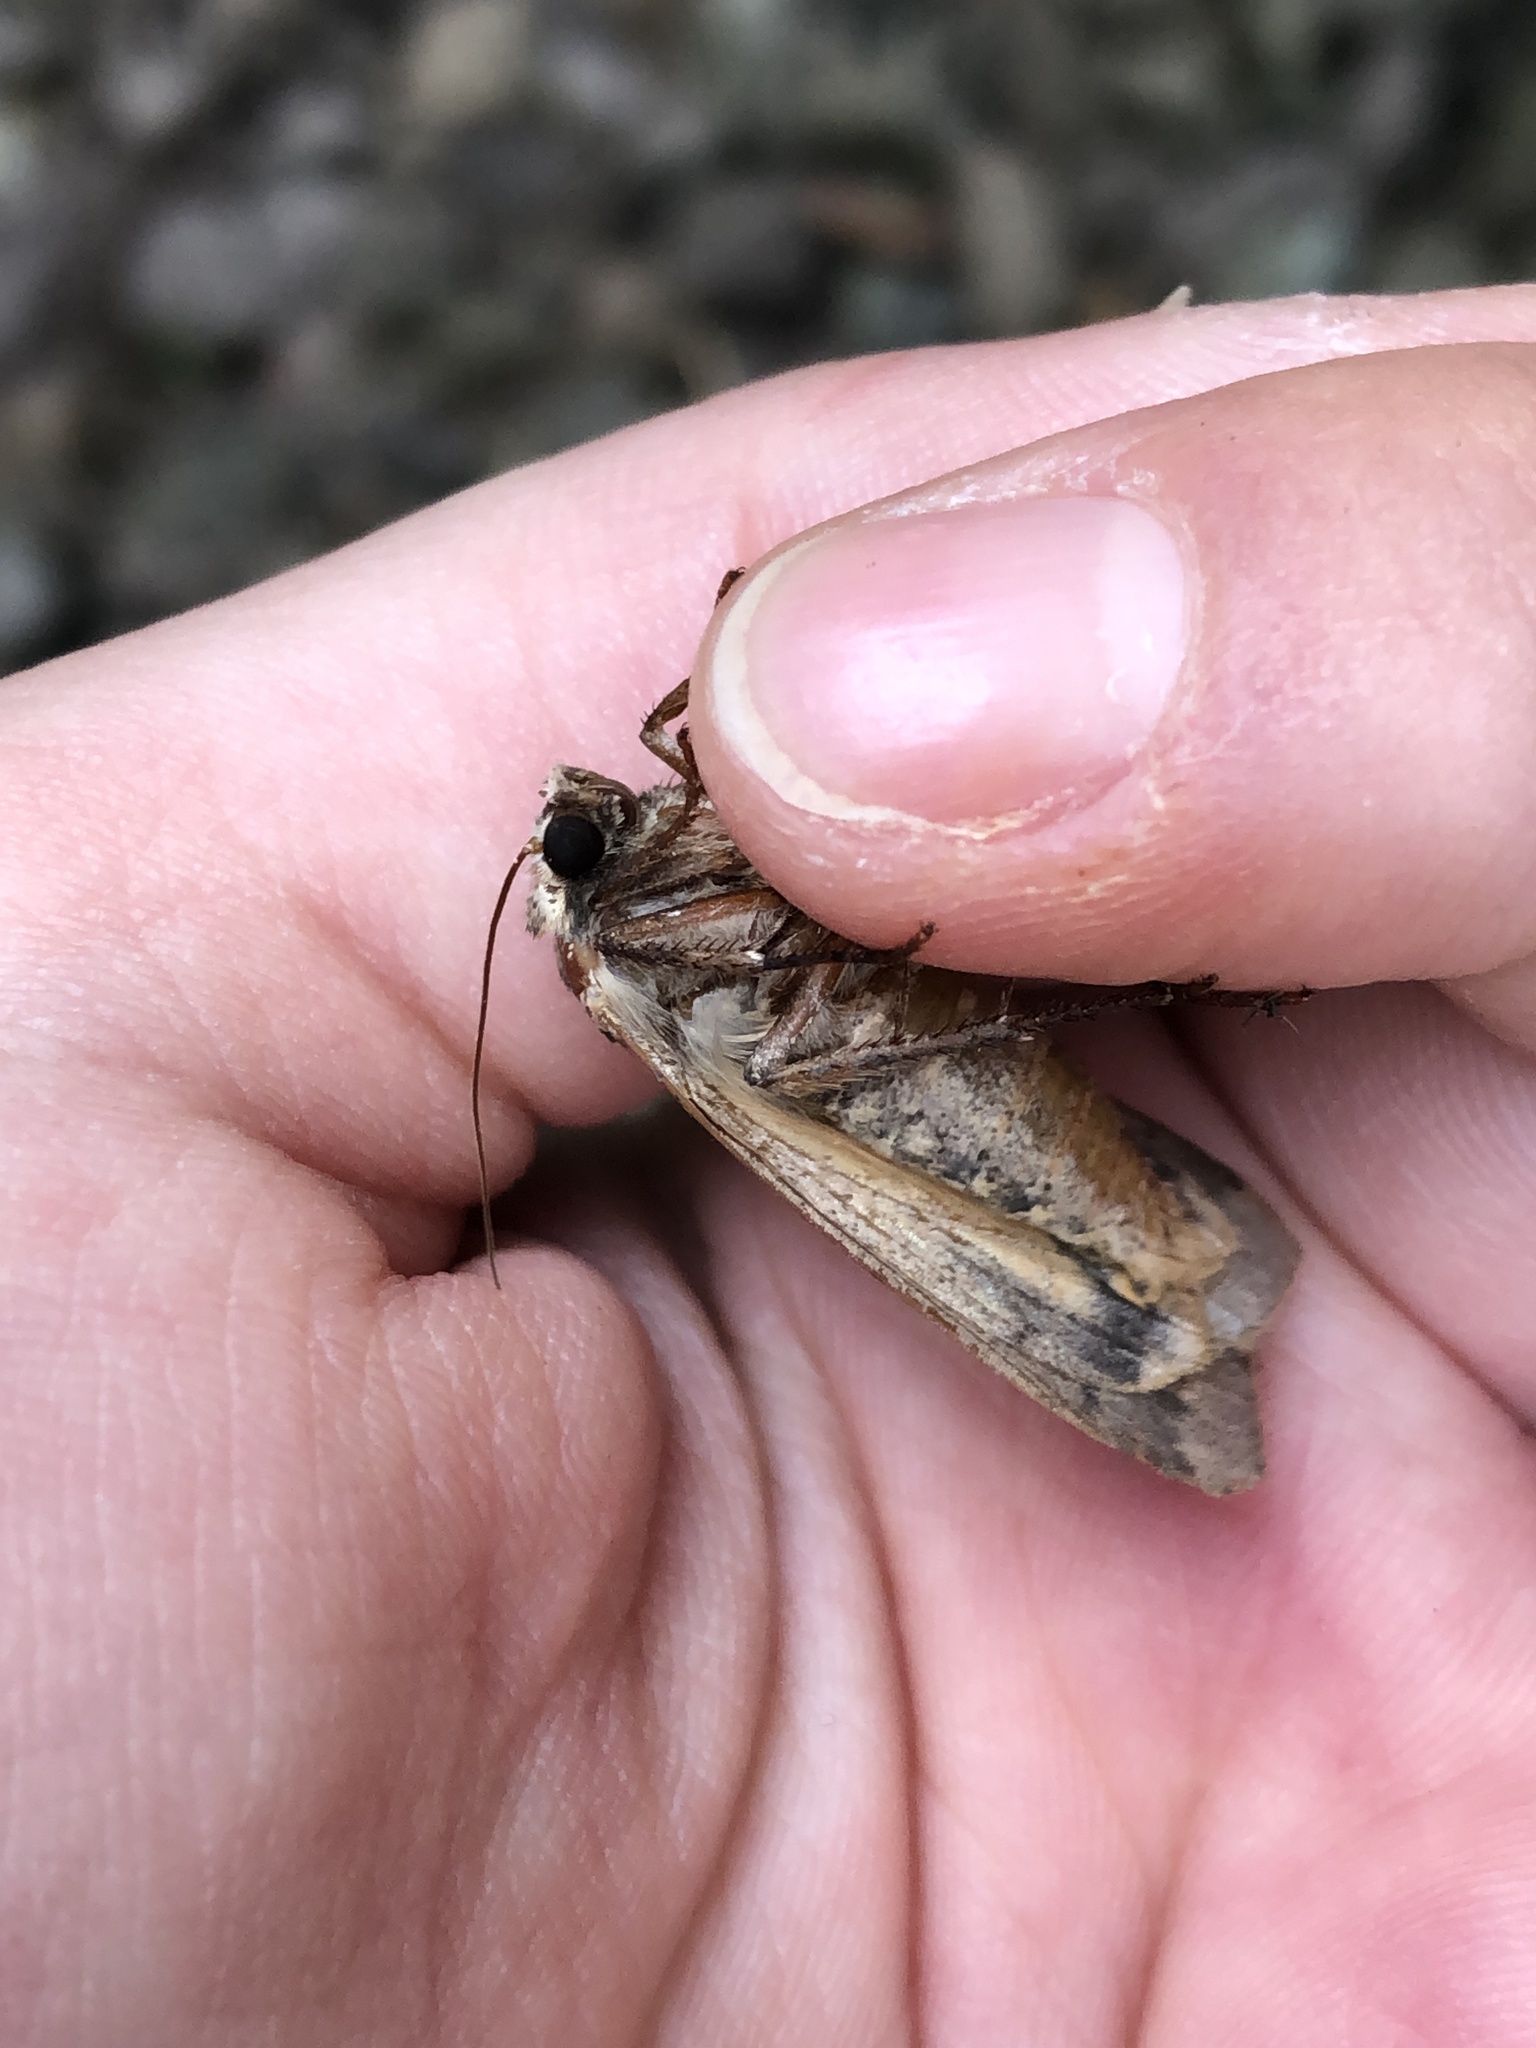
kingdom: Animalia
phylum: Arthropoda
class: Insecta
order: Lepidoptera
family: Noctuidae
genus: Noctua
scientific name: Noctua pronuba
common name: Large yellow underwing
